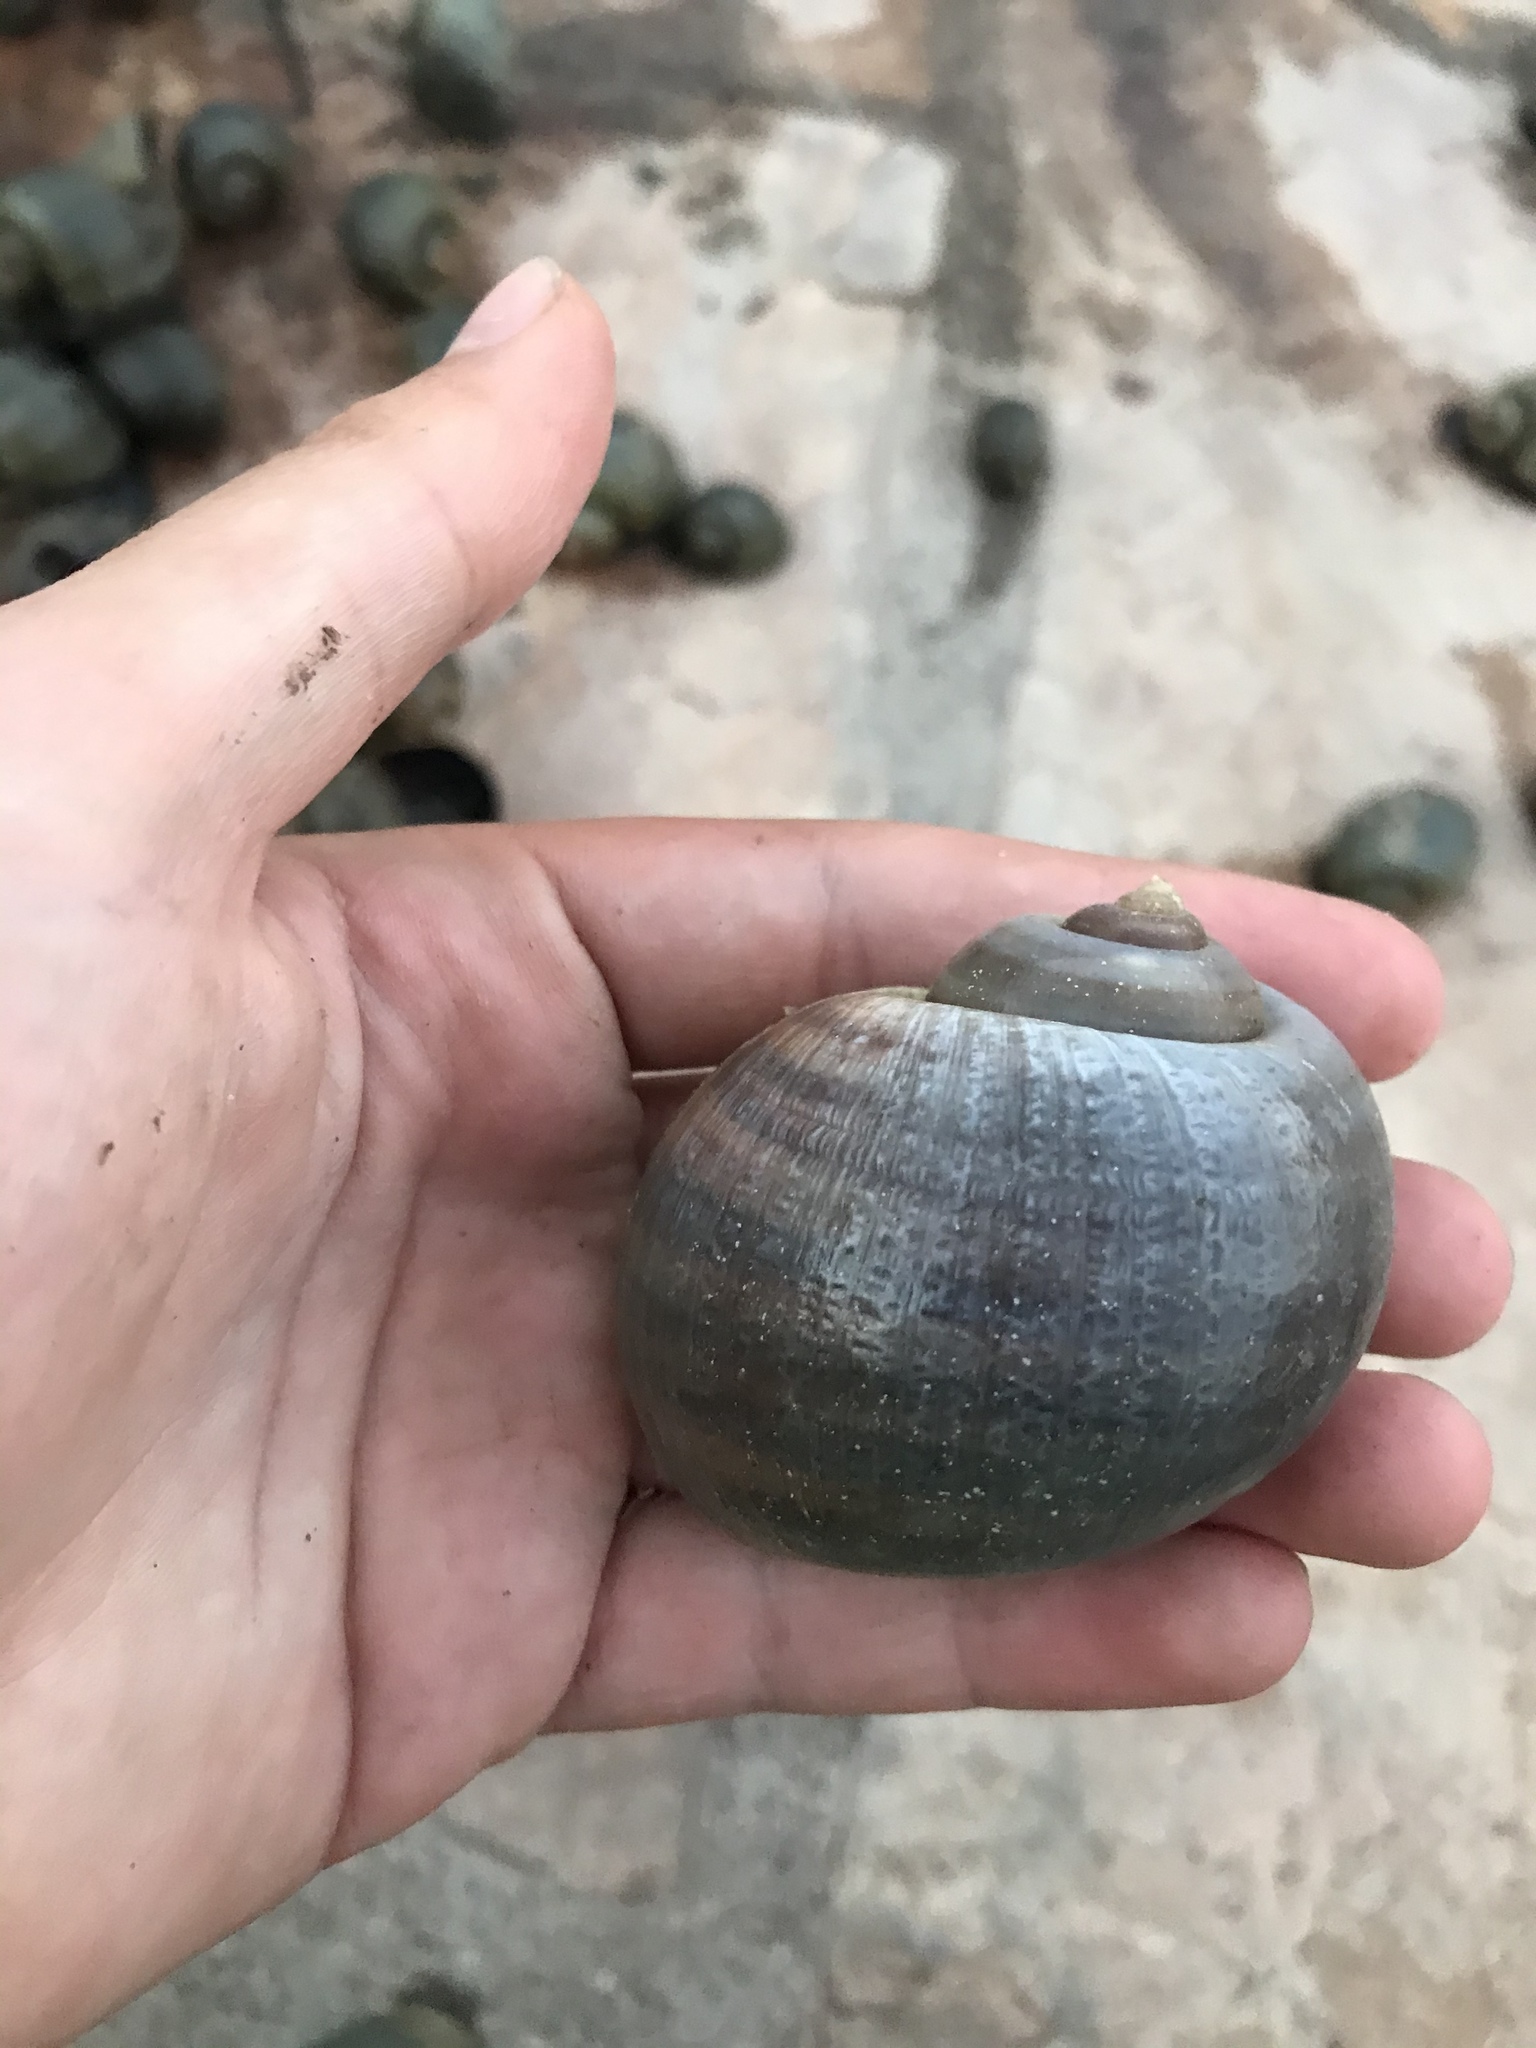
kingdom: Animalia
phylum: Mollusca
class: Gastropoda
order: Architaenioglossa
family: Ampullariidae
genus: Pomacea
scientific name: Pomacea canaliculata
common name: Channeled applesnail
